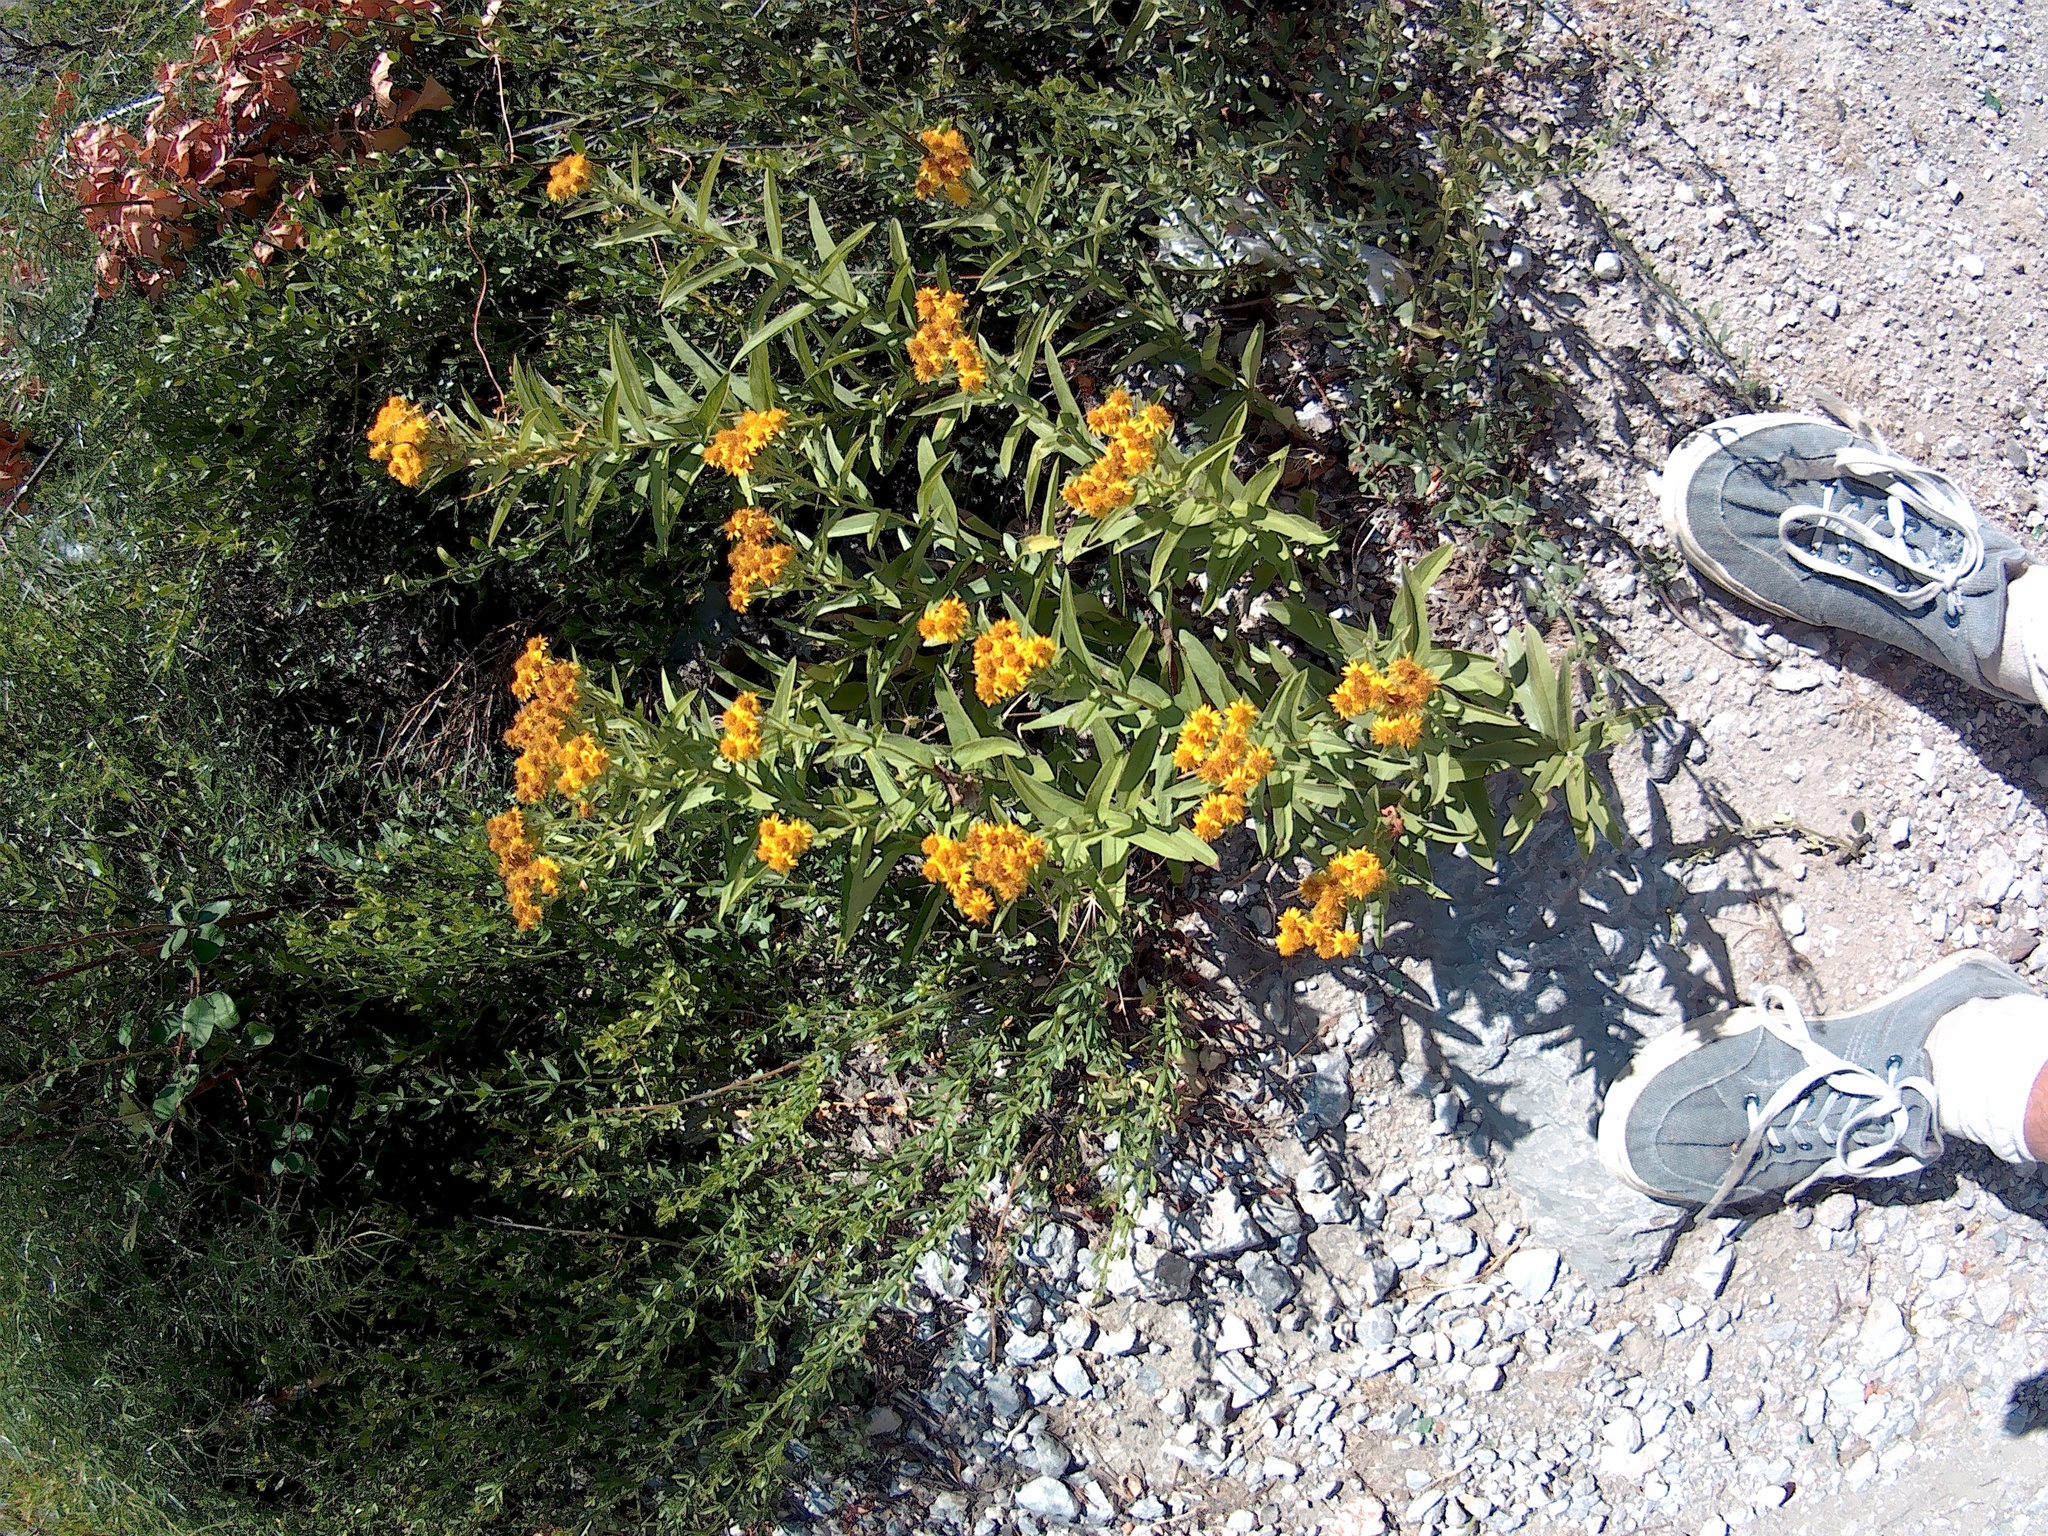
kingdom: Plantae
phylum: Tracheophyta
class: Magnoliopsida
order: Asterales
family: Asteraceae
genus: Pentanema
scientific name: Pentanema germanicum
